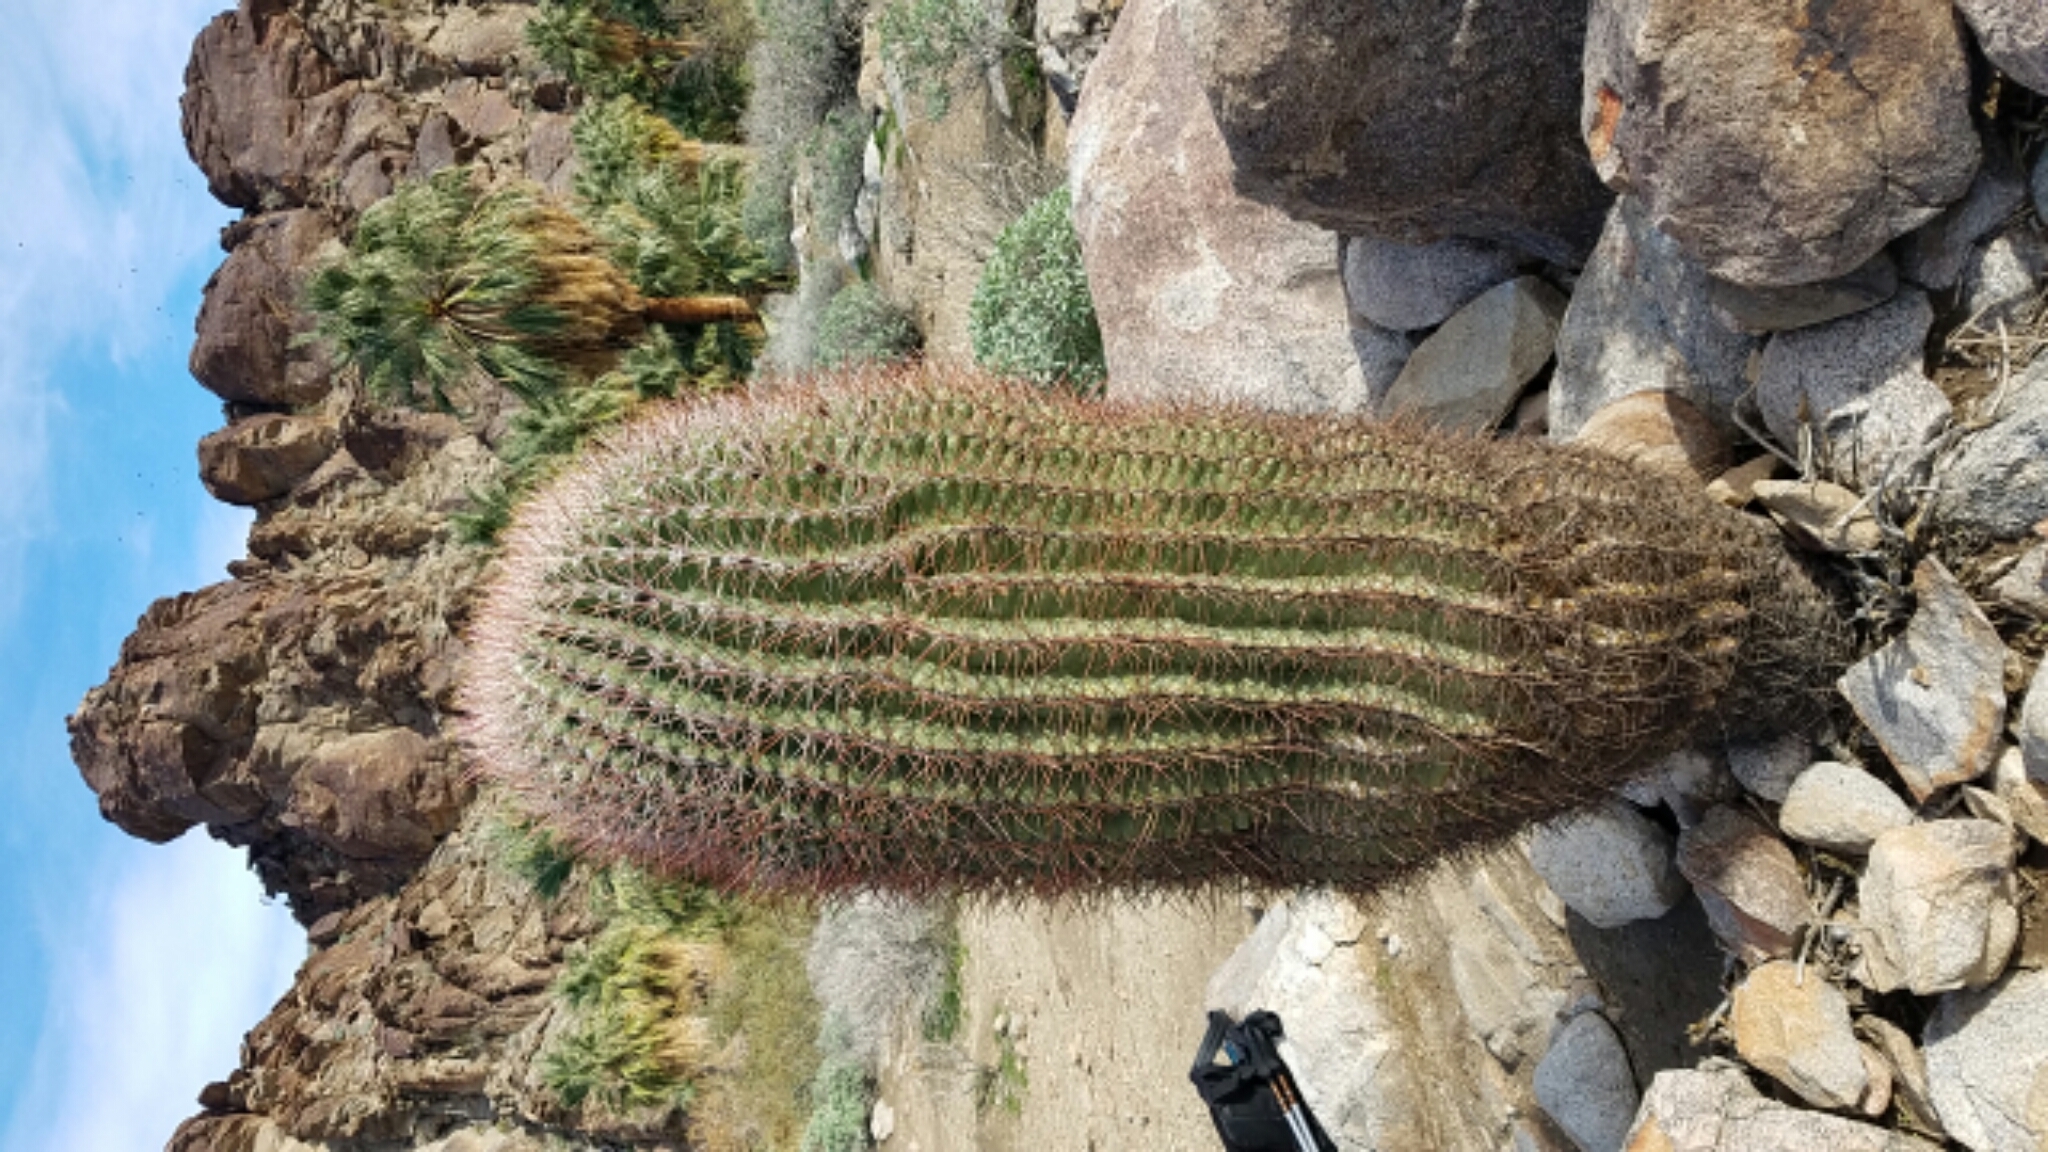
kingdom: Plantae
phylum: Tracheophyta
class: Magnoliopsida
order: Caryophyllales
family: Cactaceae
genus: Ferocactus
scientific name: Ferocactus cylindraceus
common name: California barrel cactus
